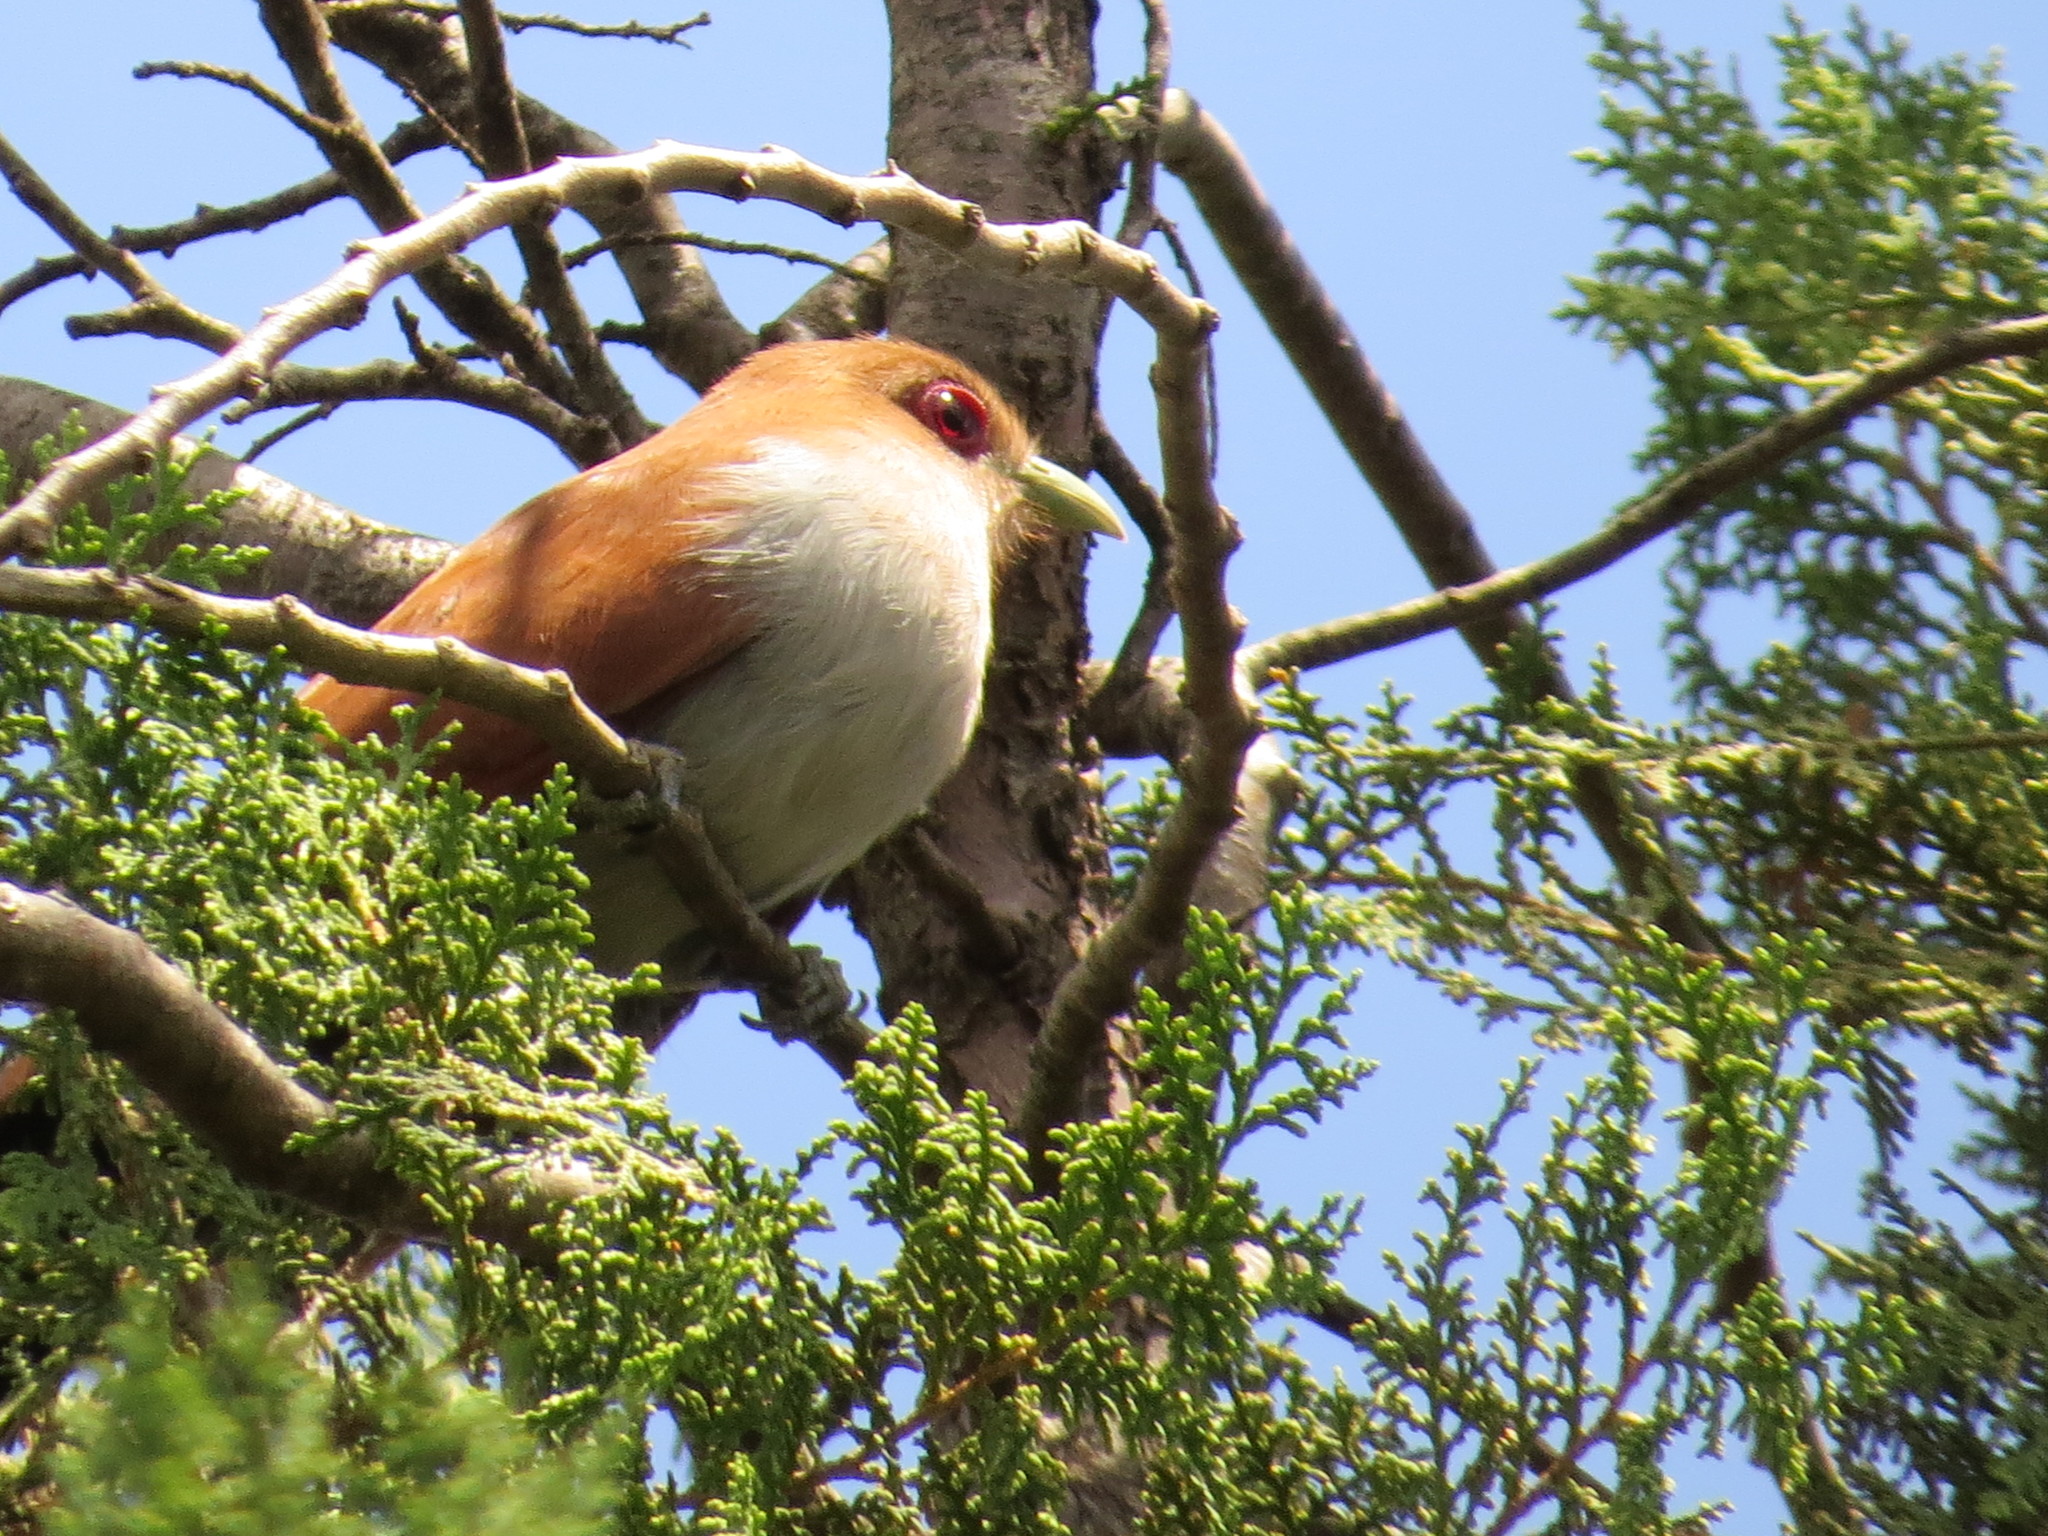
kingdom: Animalia
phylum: Chordata
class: Aves
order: Cuculiformes
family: Cuculidae
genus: Piaya
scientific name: Piaya cayana
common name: Squirrel cuckoo
